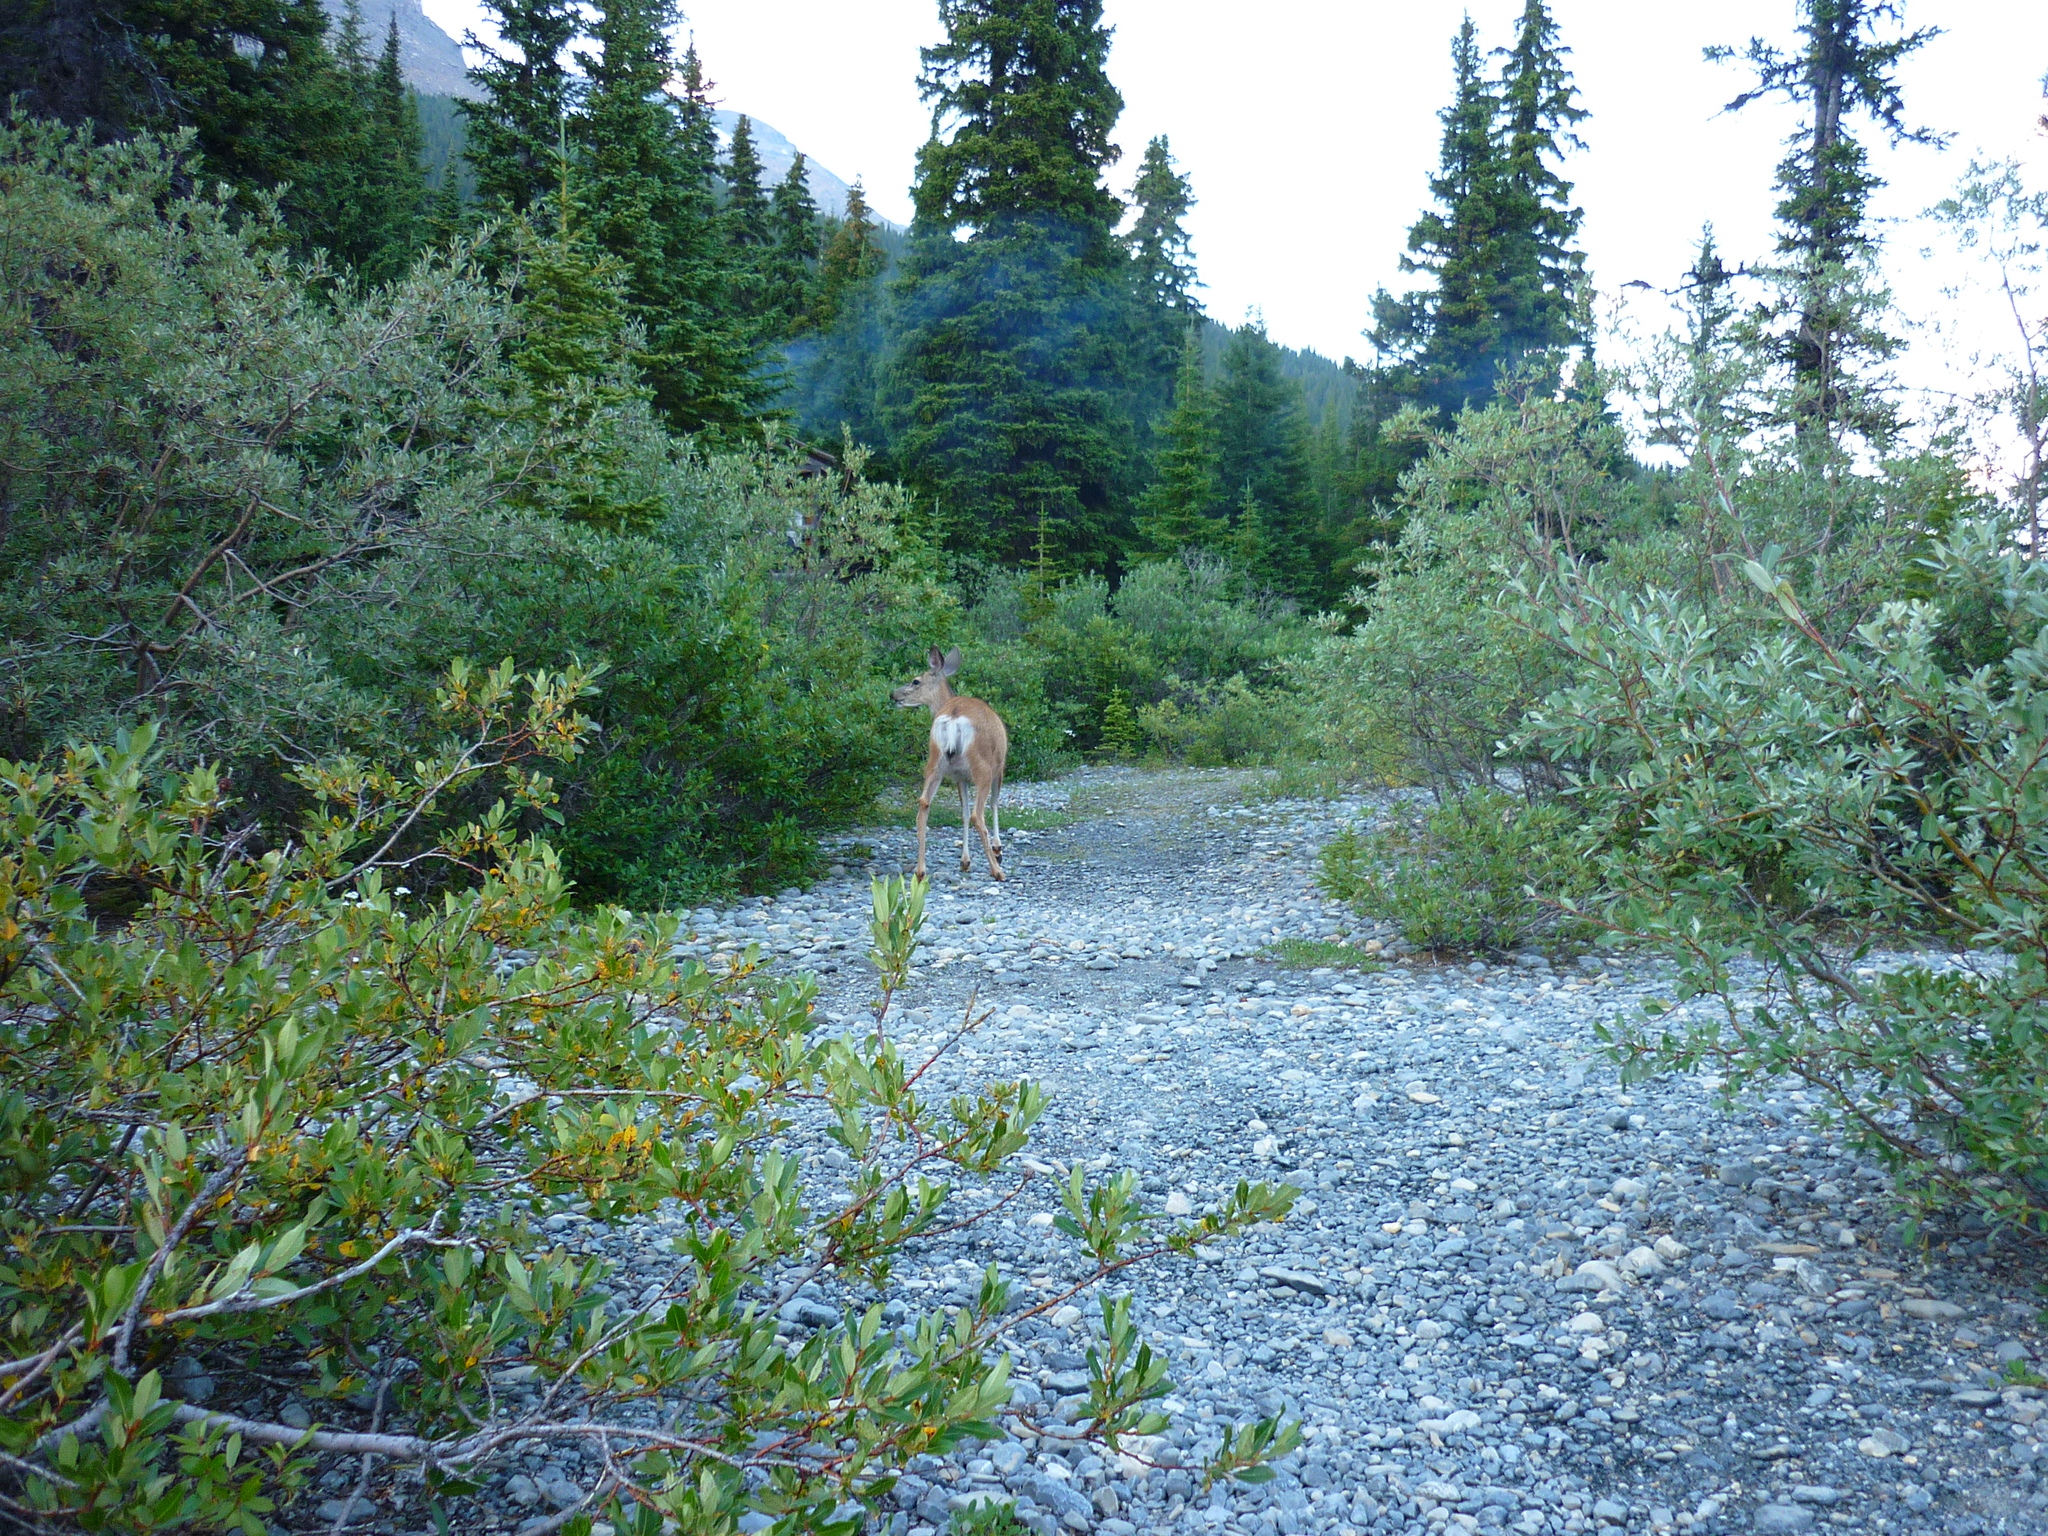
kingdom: Animalia
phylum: Chordata
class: Mammalia
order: Artiodactyla
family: Cervidae
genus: Odocoileus
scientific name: Odocoileus hemionus
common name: Mule deer
